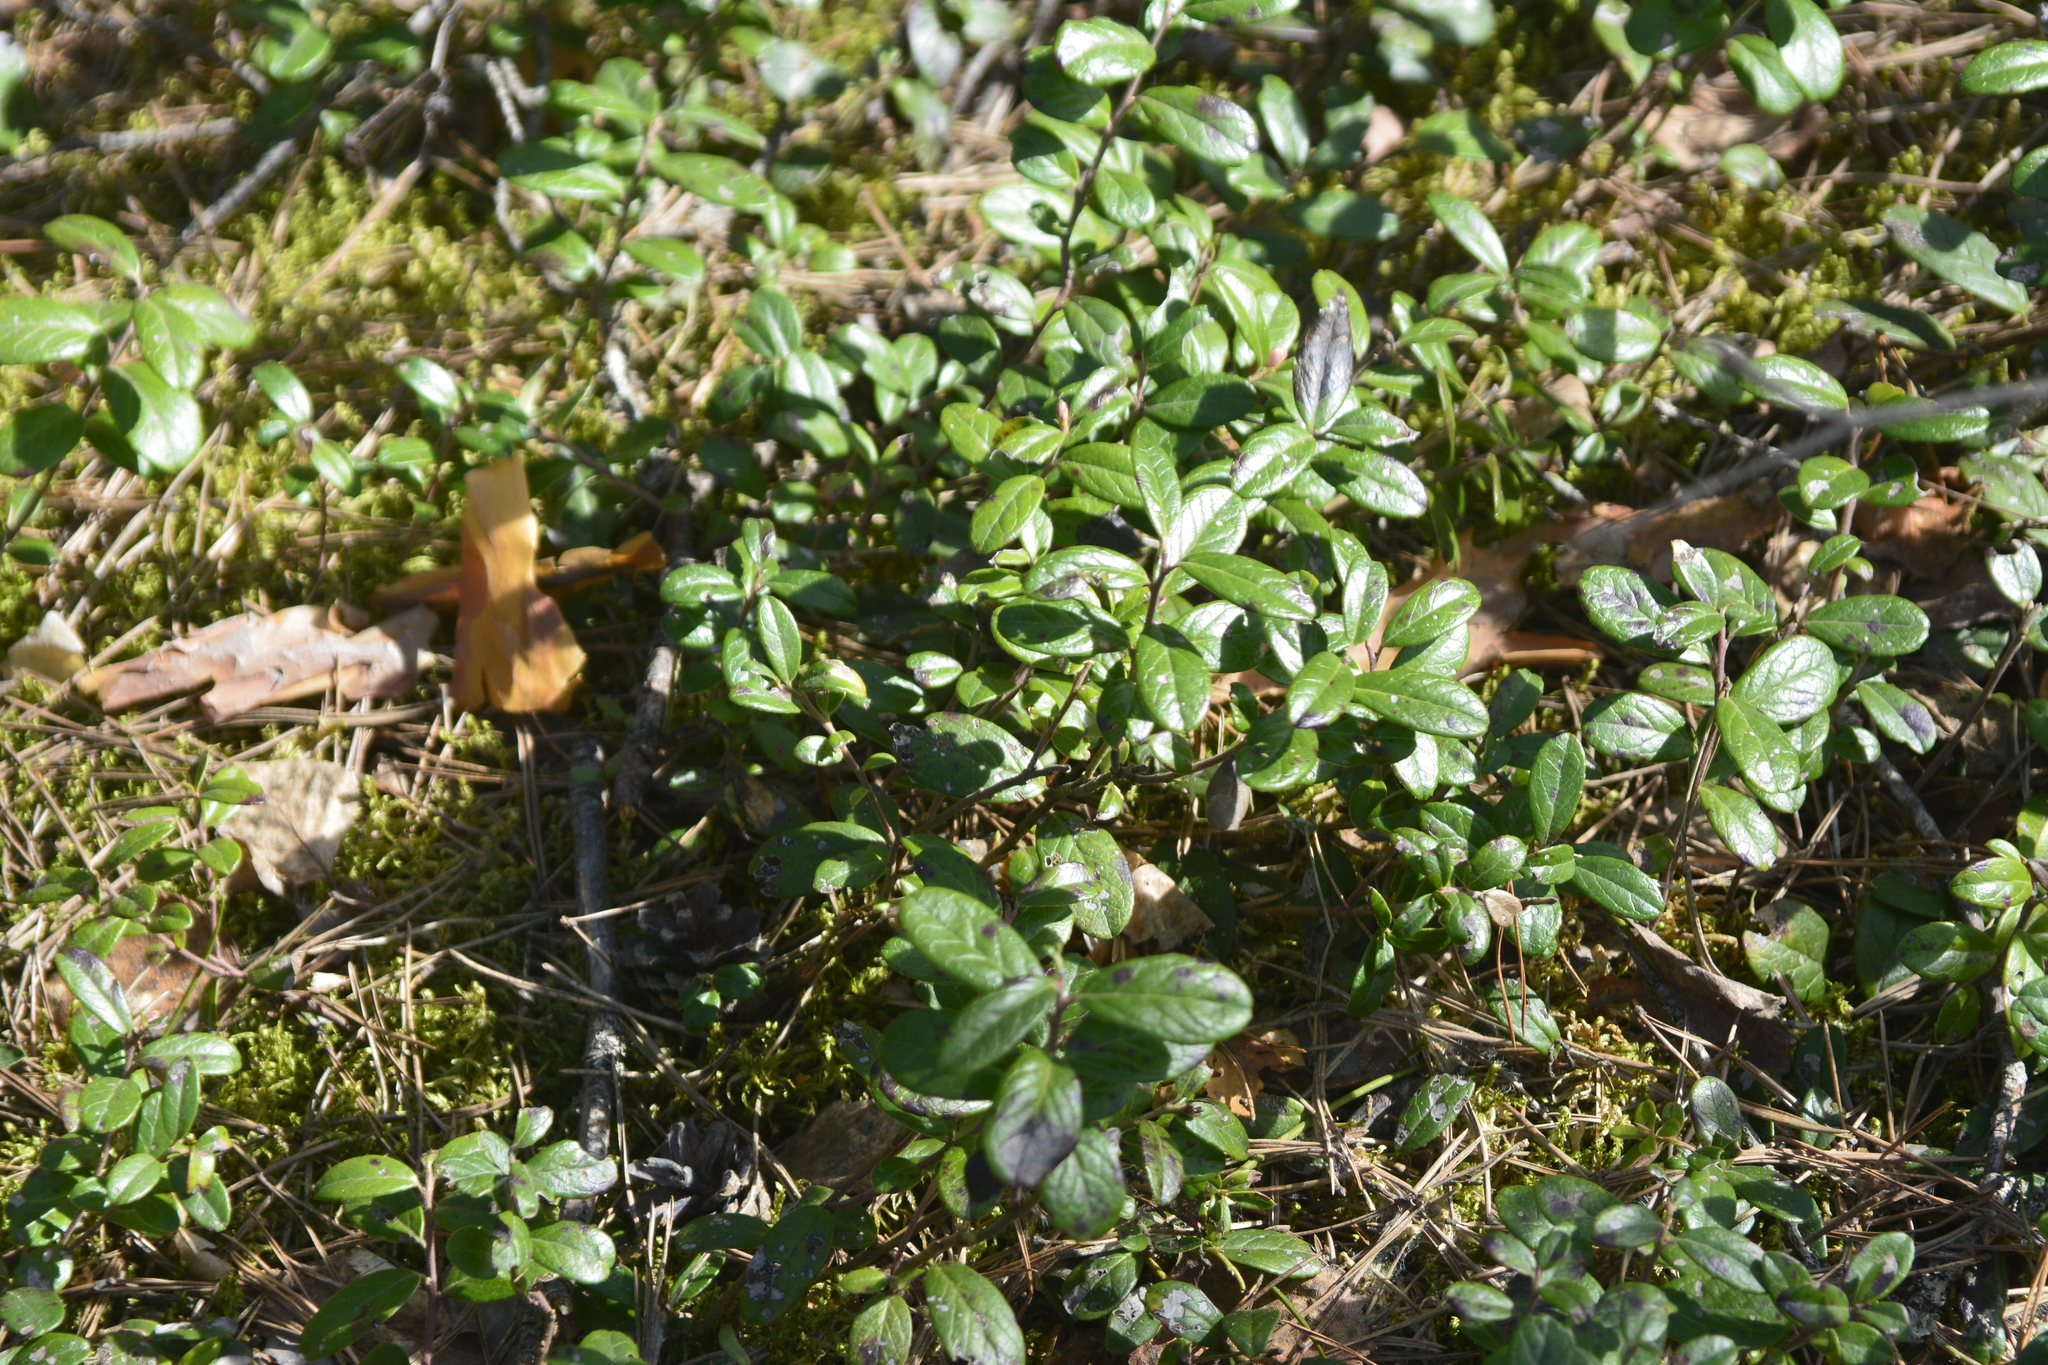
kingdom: Plantae
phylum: Tracheophyta
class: Magnoliopsida
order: Ericales
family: Ericaceae
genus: Vaccinium
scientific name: Vaccinium vitis-idaea
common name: Cowberry
